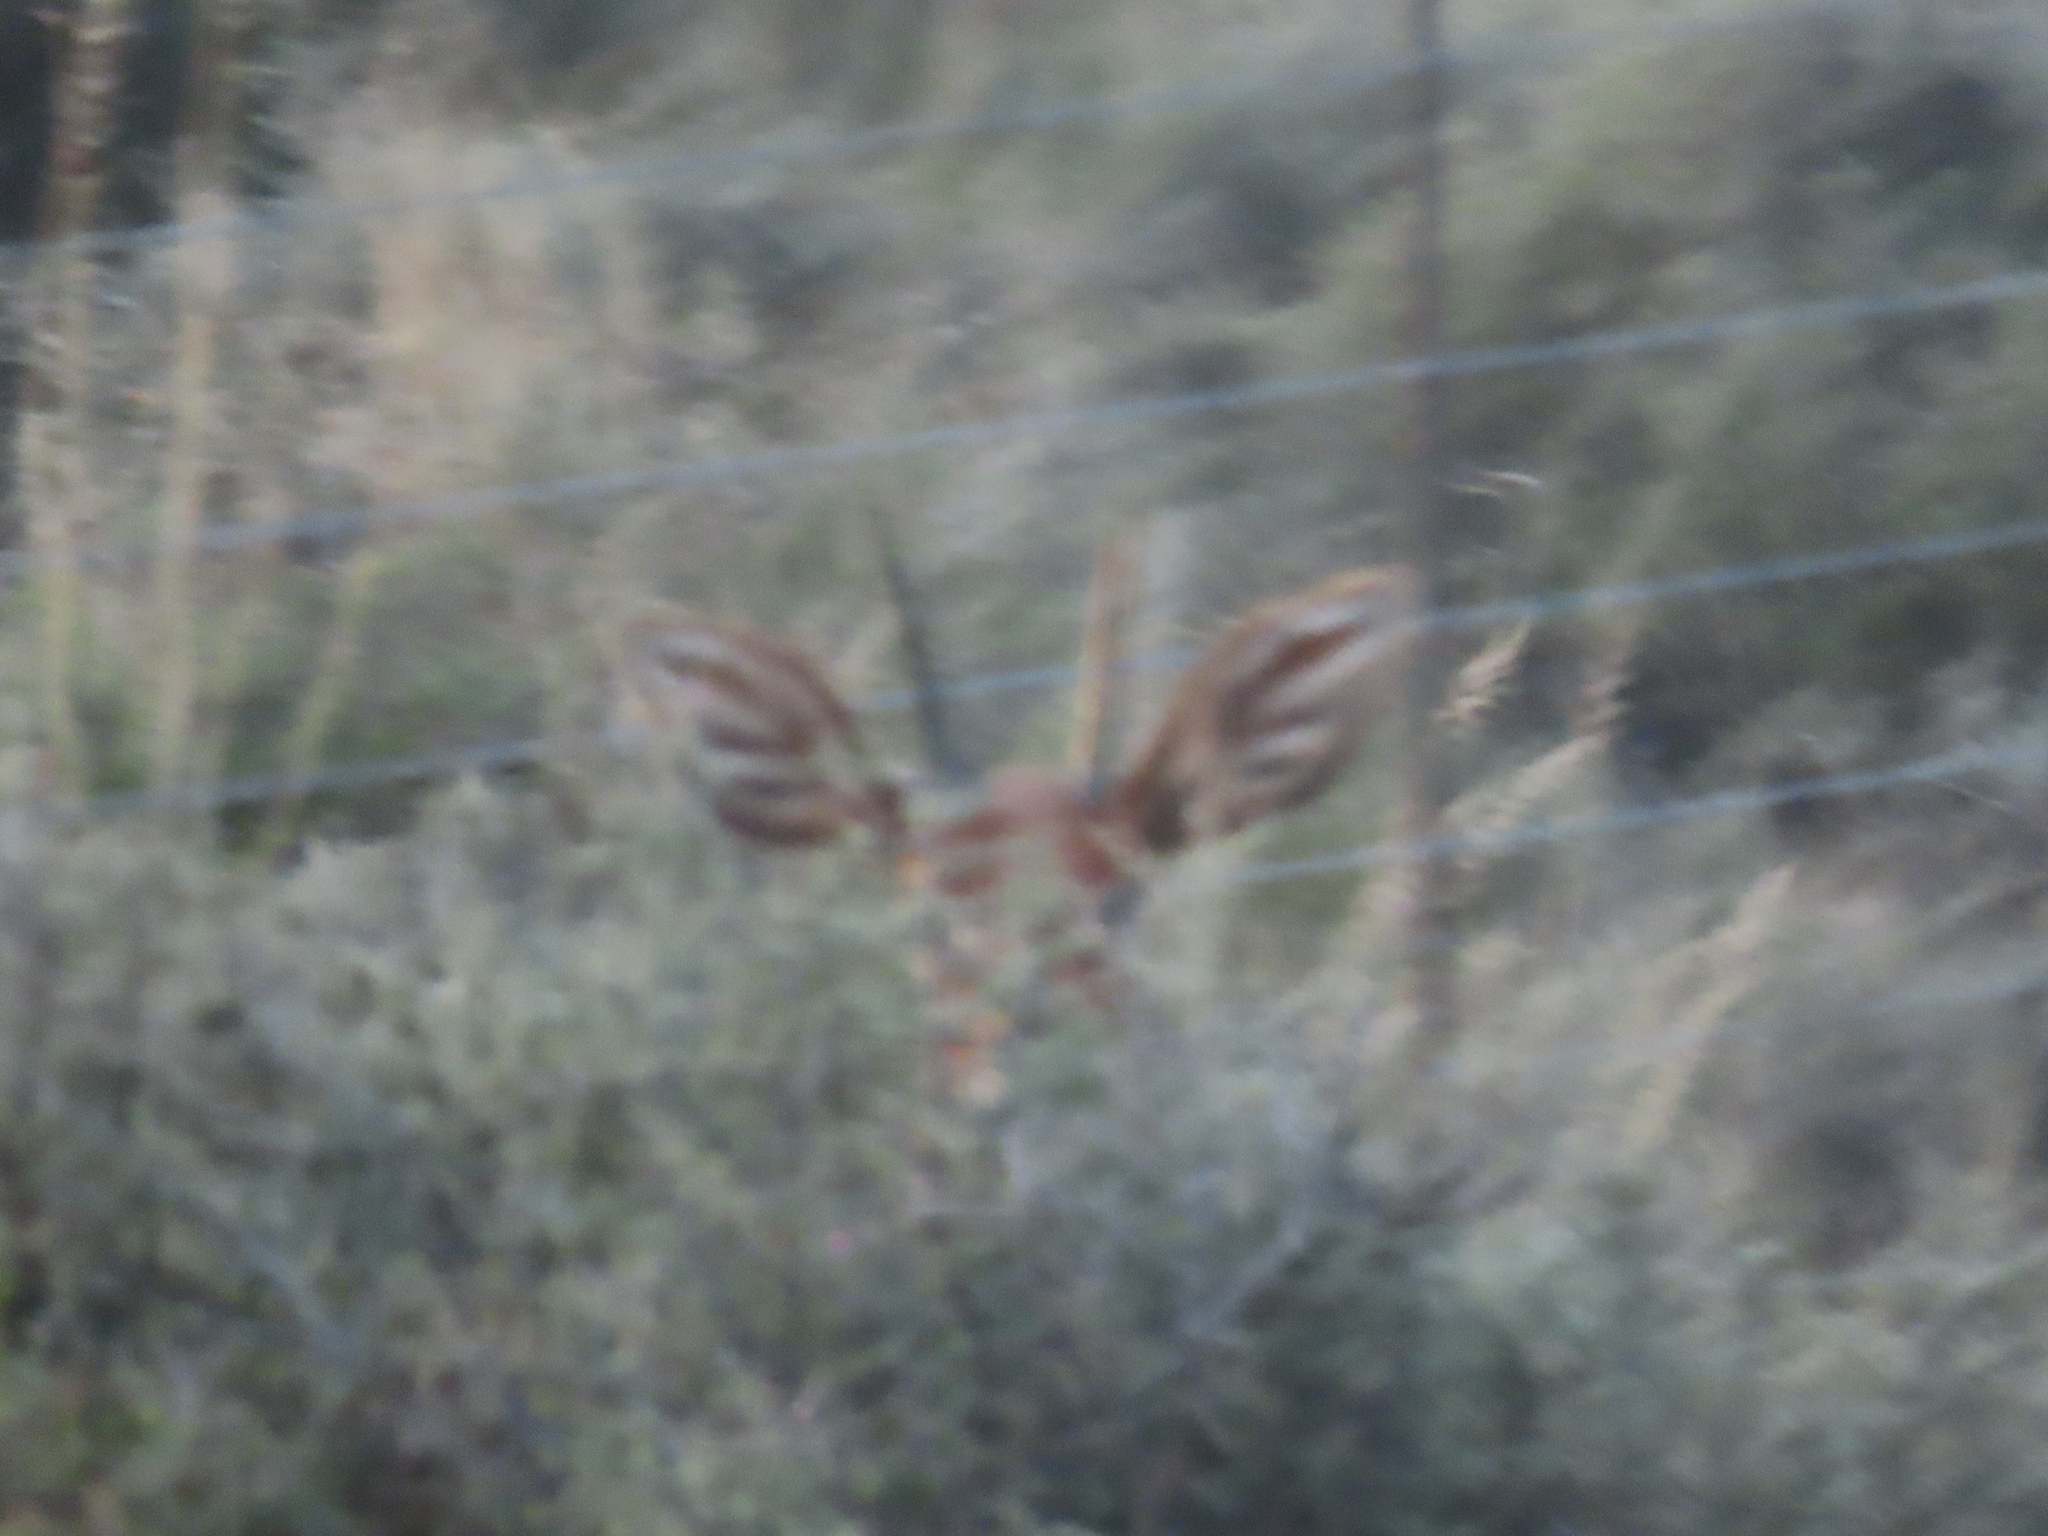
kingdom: Animalia
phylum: Chordata
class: Mammalia
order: Artiodactyla
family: Bovidae
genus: Raphicerus
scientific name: Raphicerus campestris
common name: Steenbok
